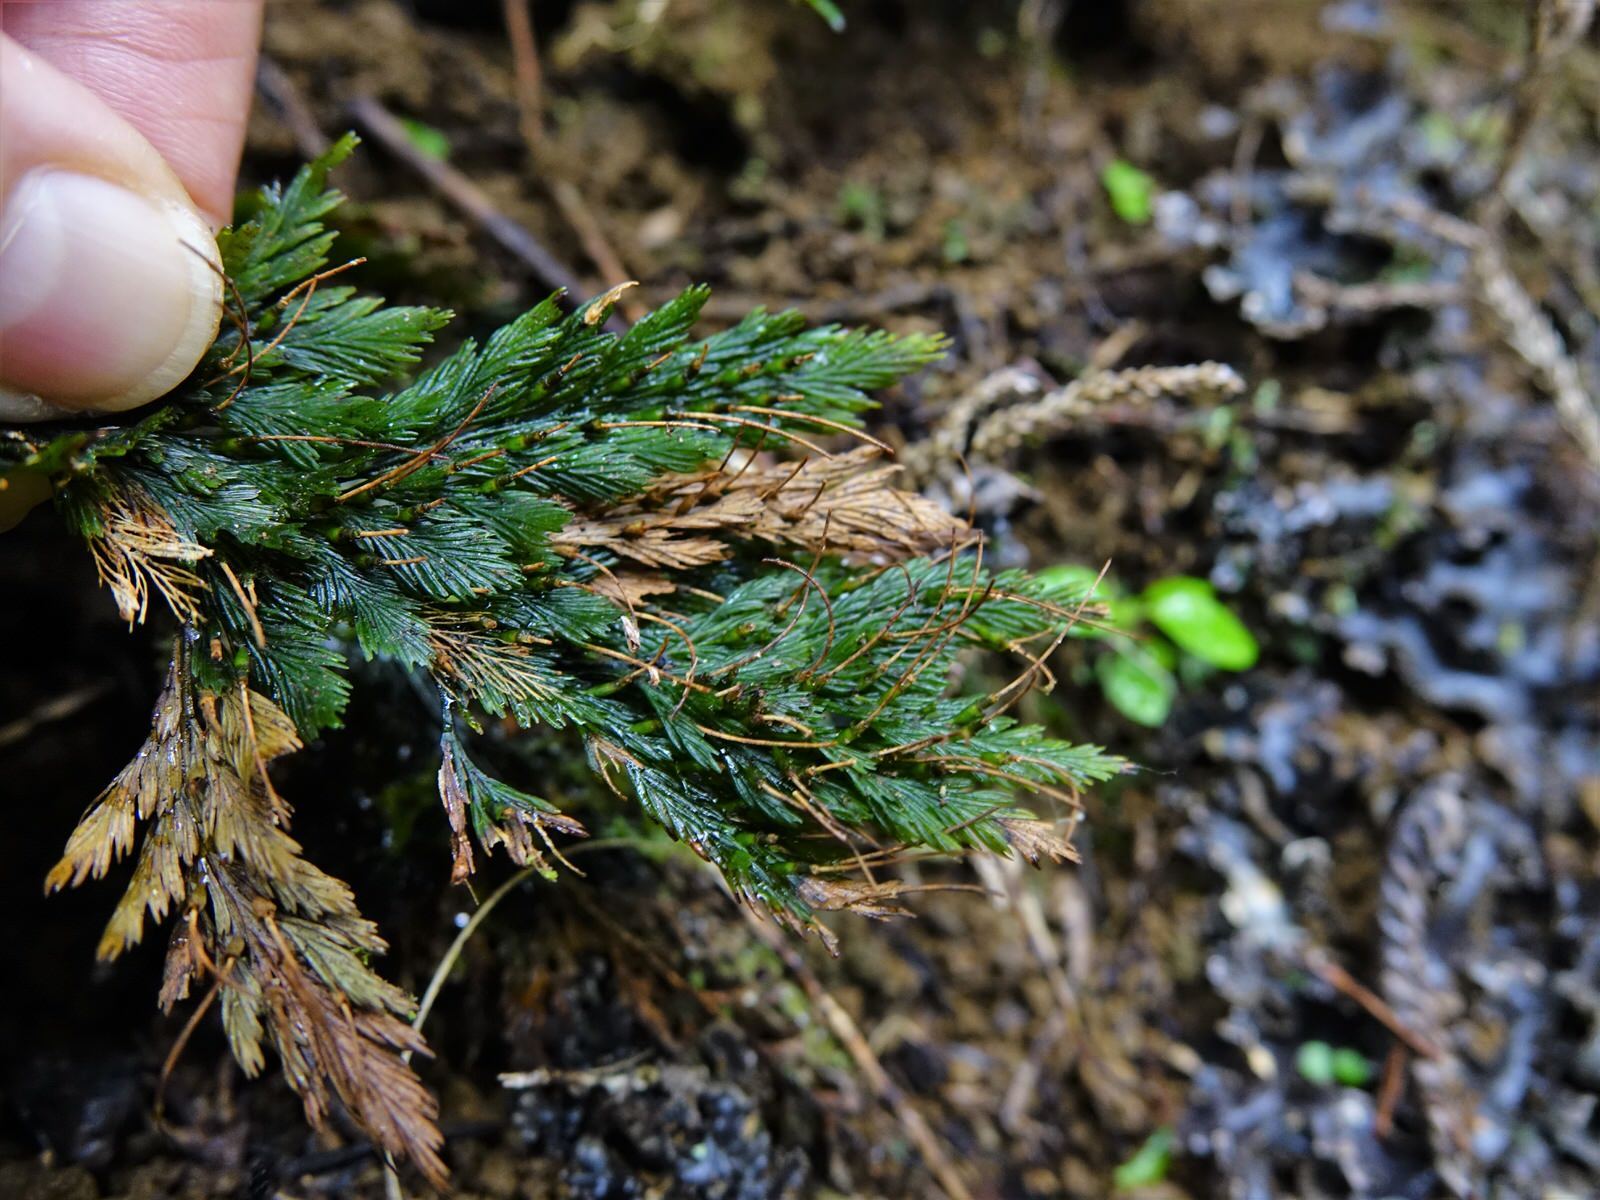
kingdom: Plantae
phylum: Tracheophyta
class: Polypodiopsida
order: Hymenophyllales
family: Hymenophyllaceae
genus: Abrodictyum
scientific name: Abrodictyum elongatum
